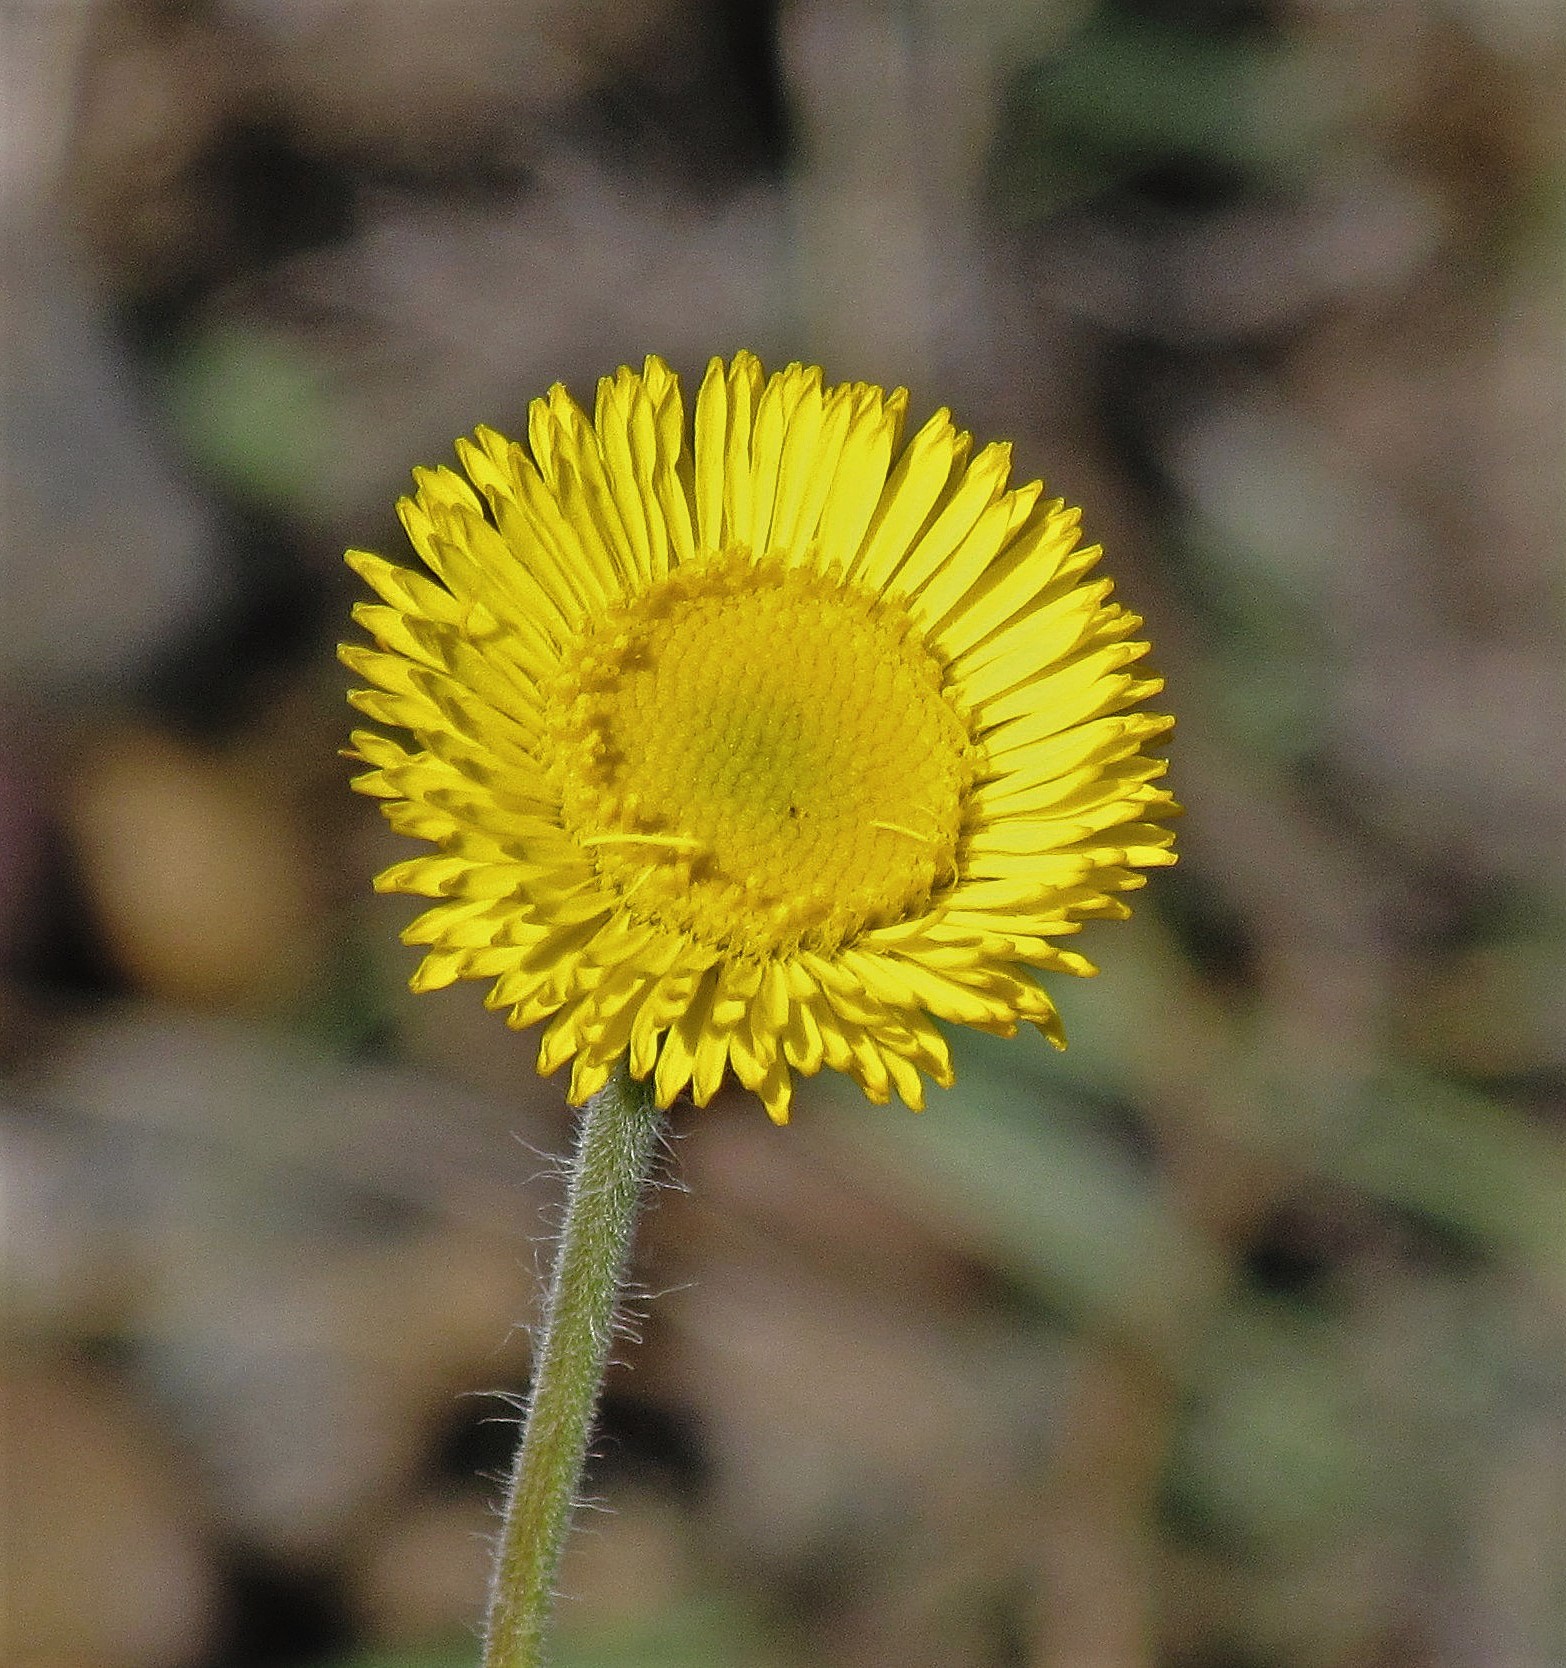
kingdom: Plantae
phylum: Tracheophyta
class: Magnoliopsida
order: Asterales
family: Asteraceae
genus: Hysterionica
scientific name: Hysterionica jasionoides
